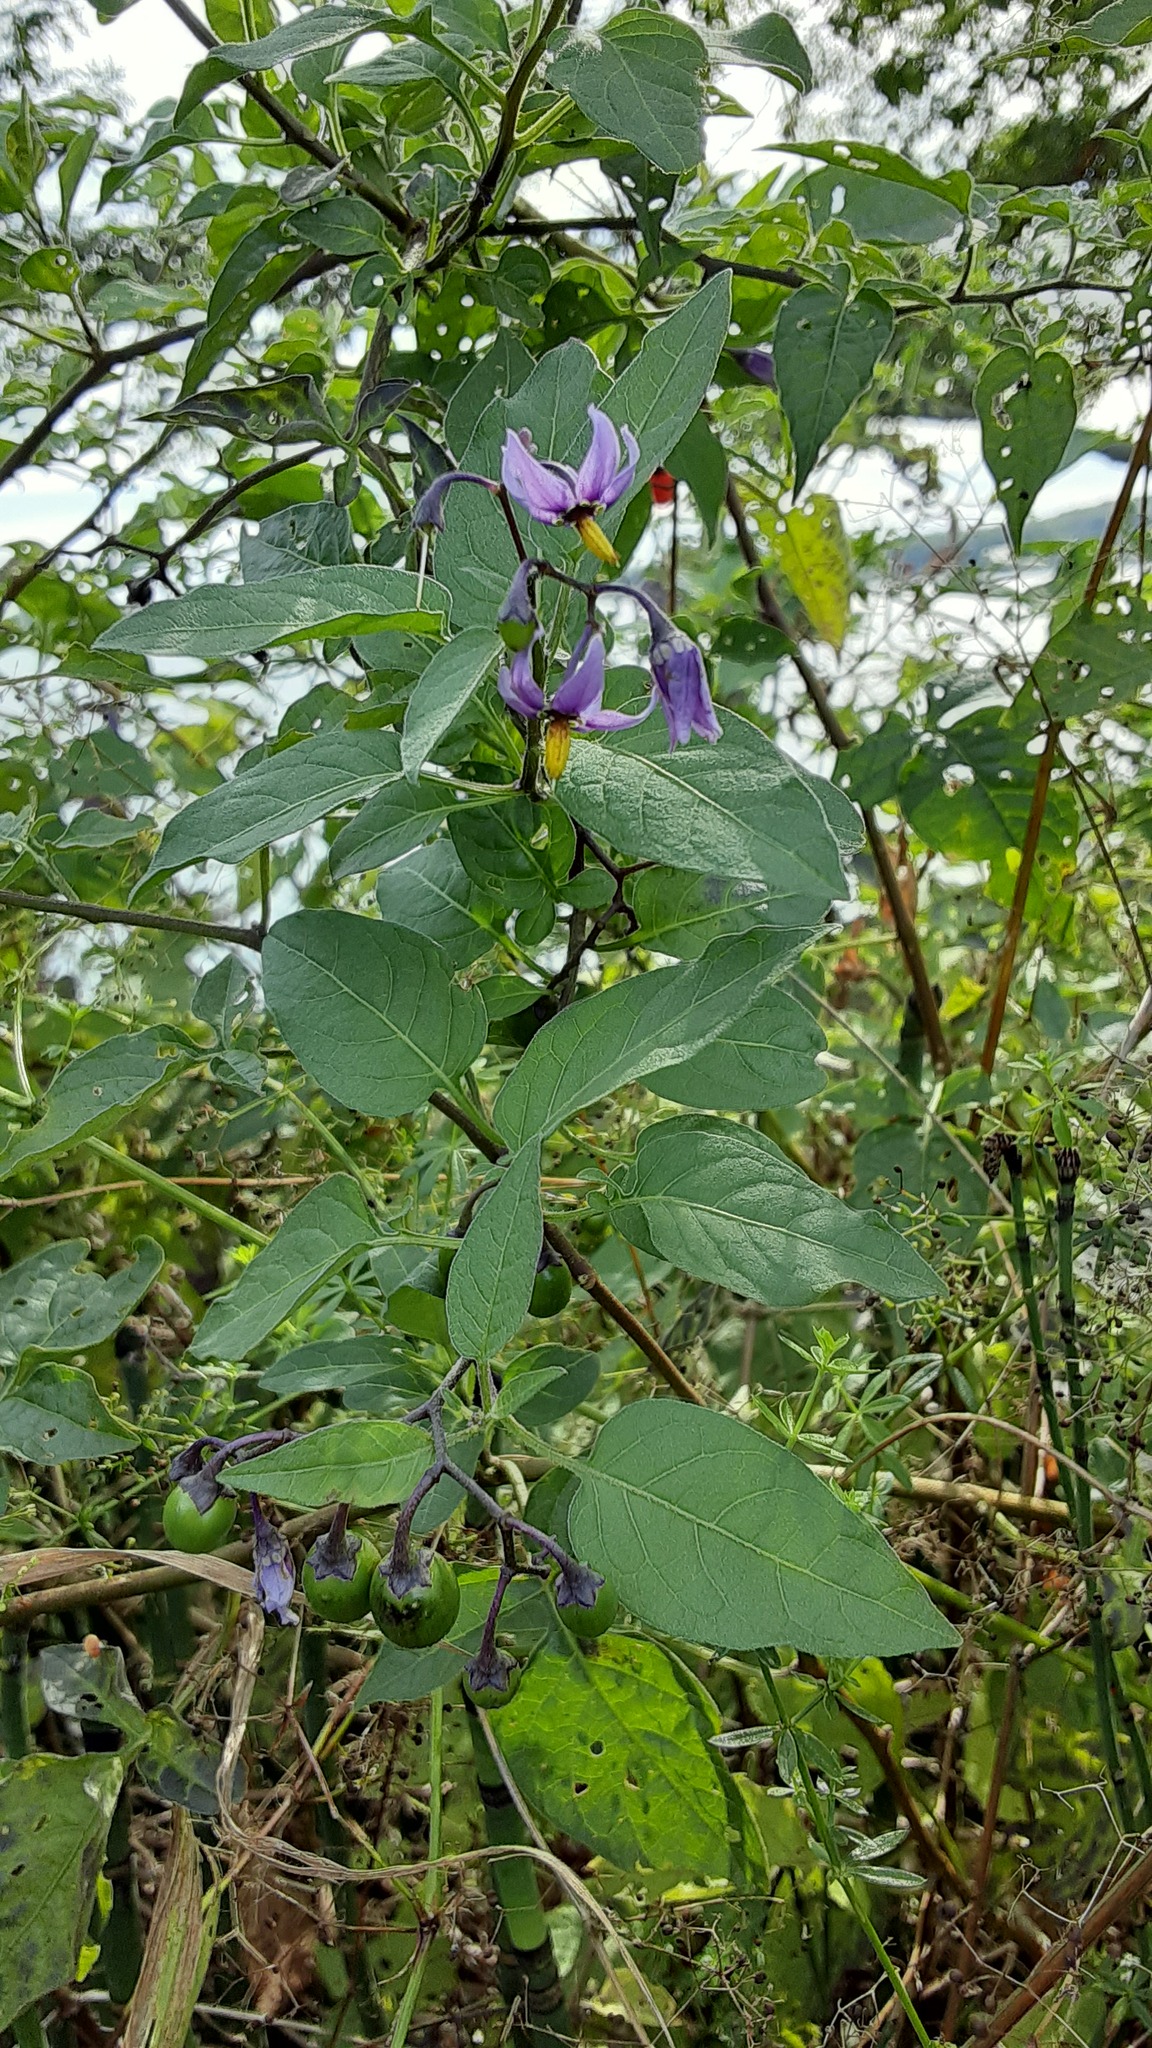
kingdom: Plantae
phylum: Tracheophyta
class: Magnoliopsida
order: Solanales
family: Solanaceae
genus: Solanum
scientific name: Solanum dulcamara
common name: Climbing nightshade
